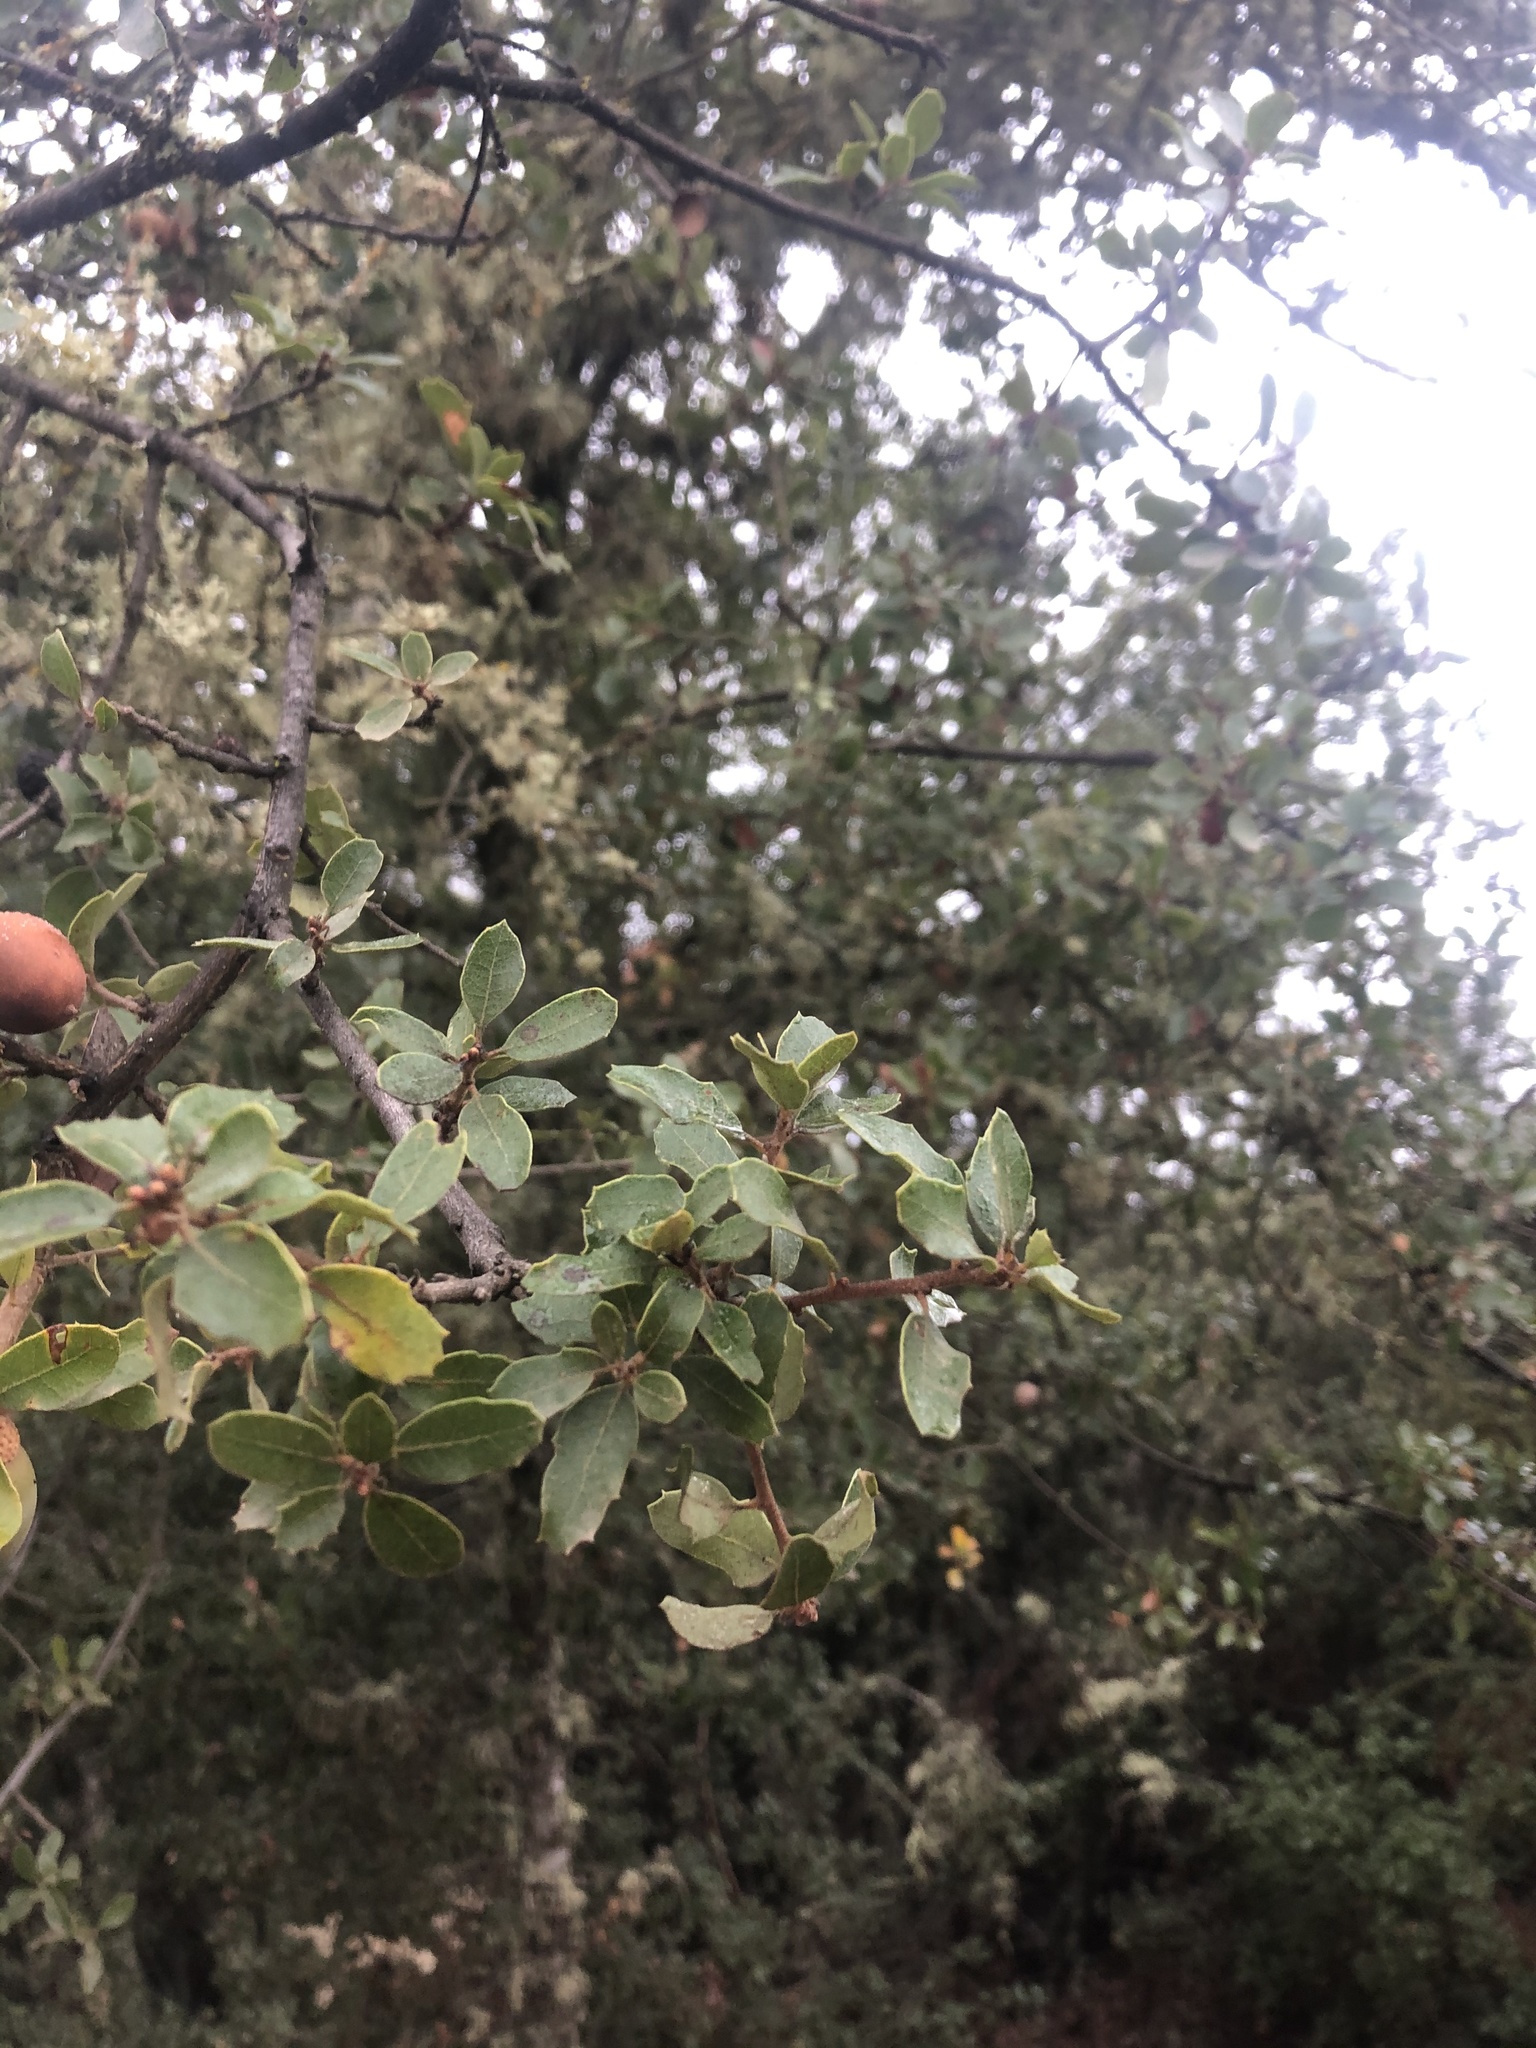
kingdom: Plantae
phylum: Tracheophyta
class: Magnoliopsida
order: Fagales
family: Fagaceae
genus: Quercus
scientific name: Quercus berberidifolia
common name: California scrub oak
